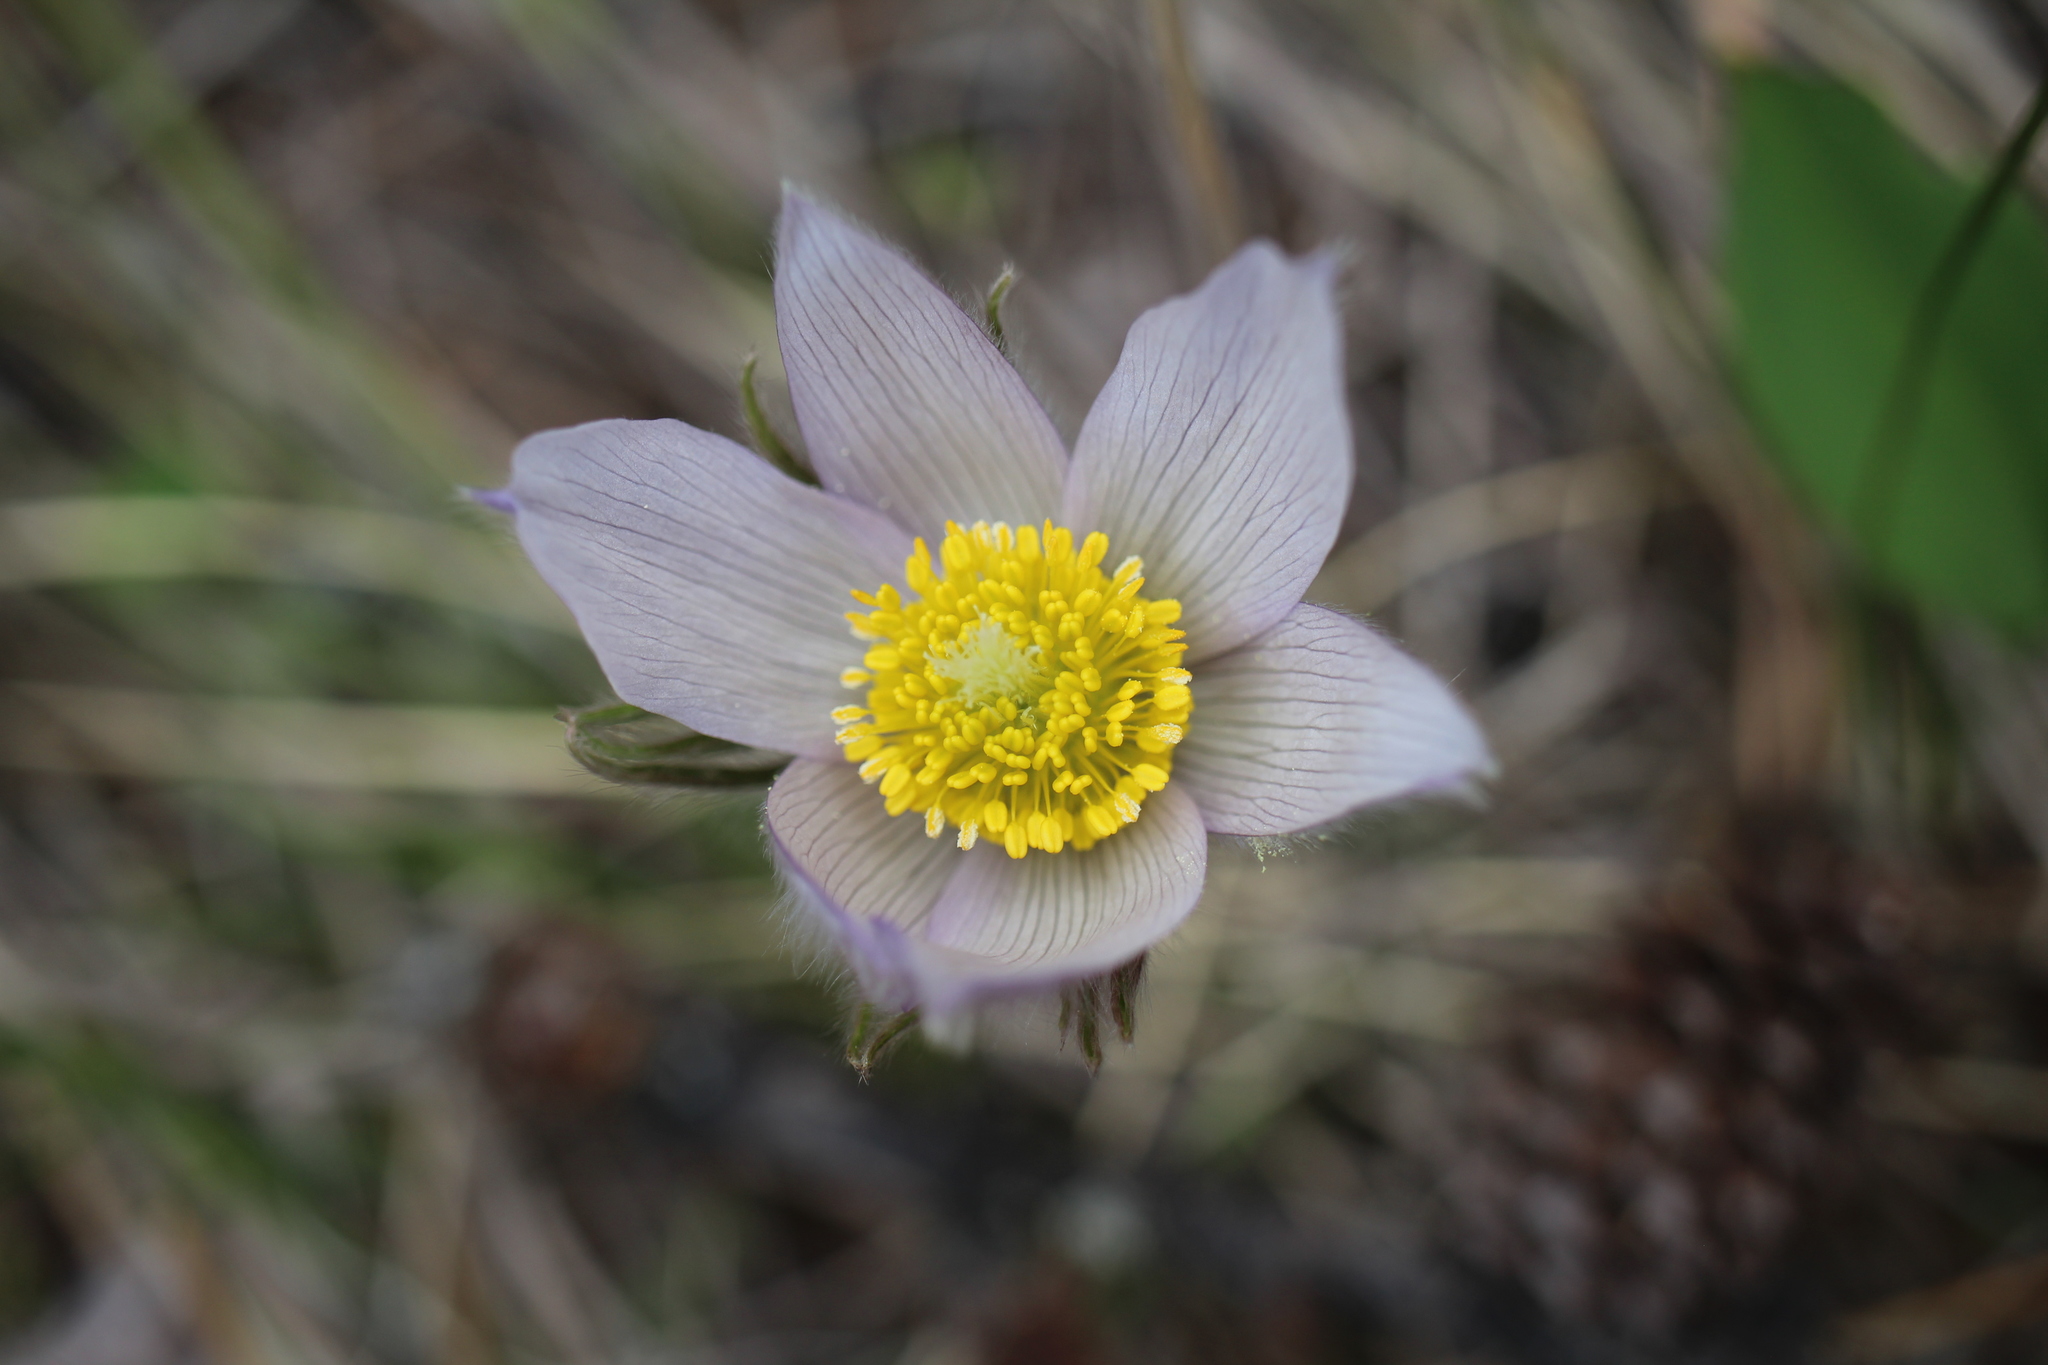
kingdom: Plantae
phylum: Tracheophyta
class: Magnoliopsida
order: Ranunculales
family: Ranunculaceae
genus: Pulsatilla
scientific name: Pulsatilla nuttalliana
